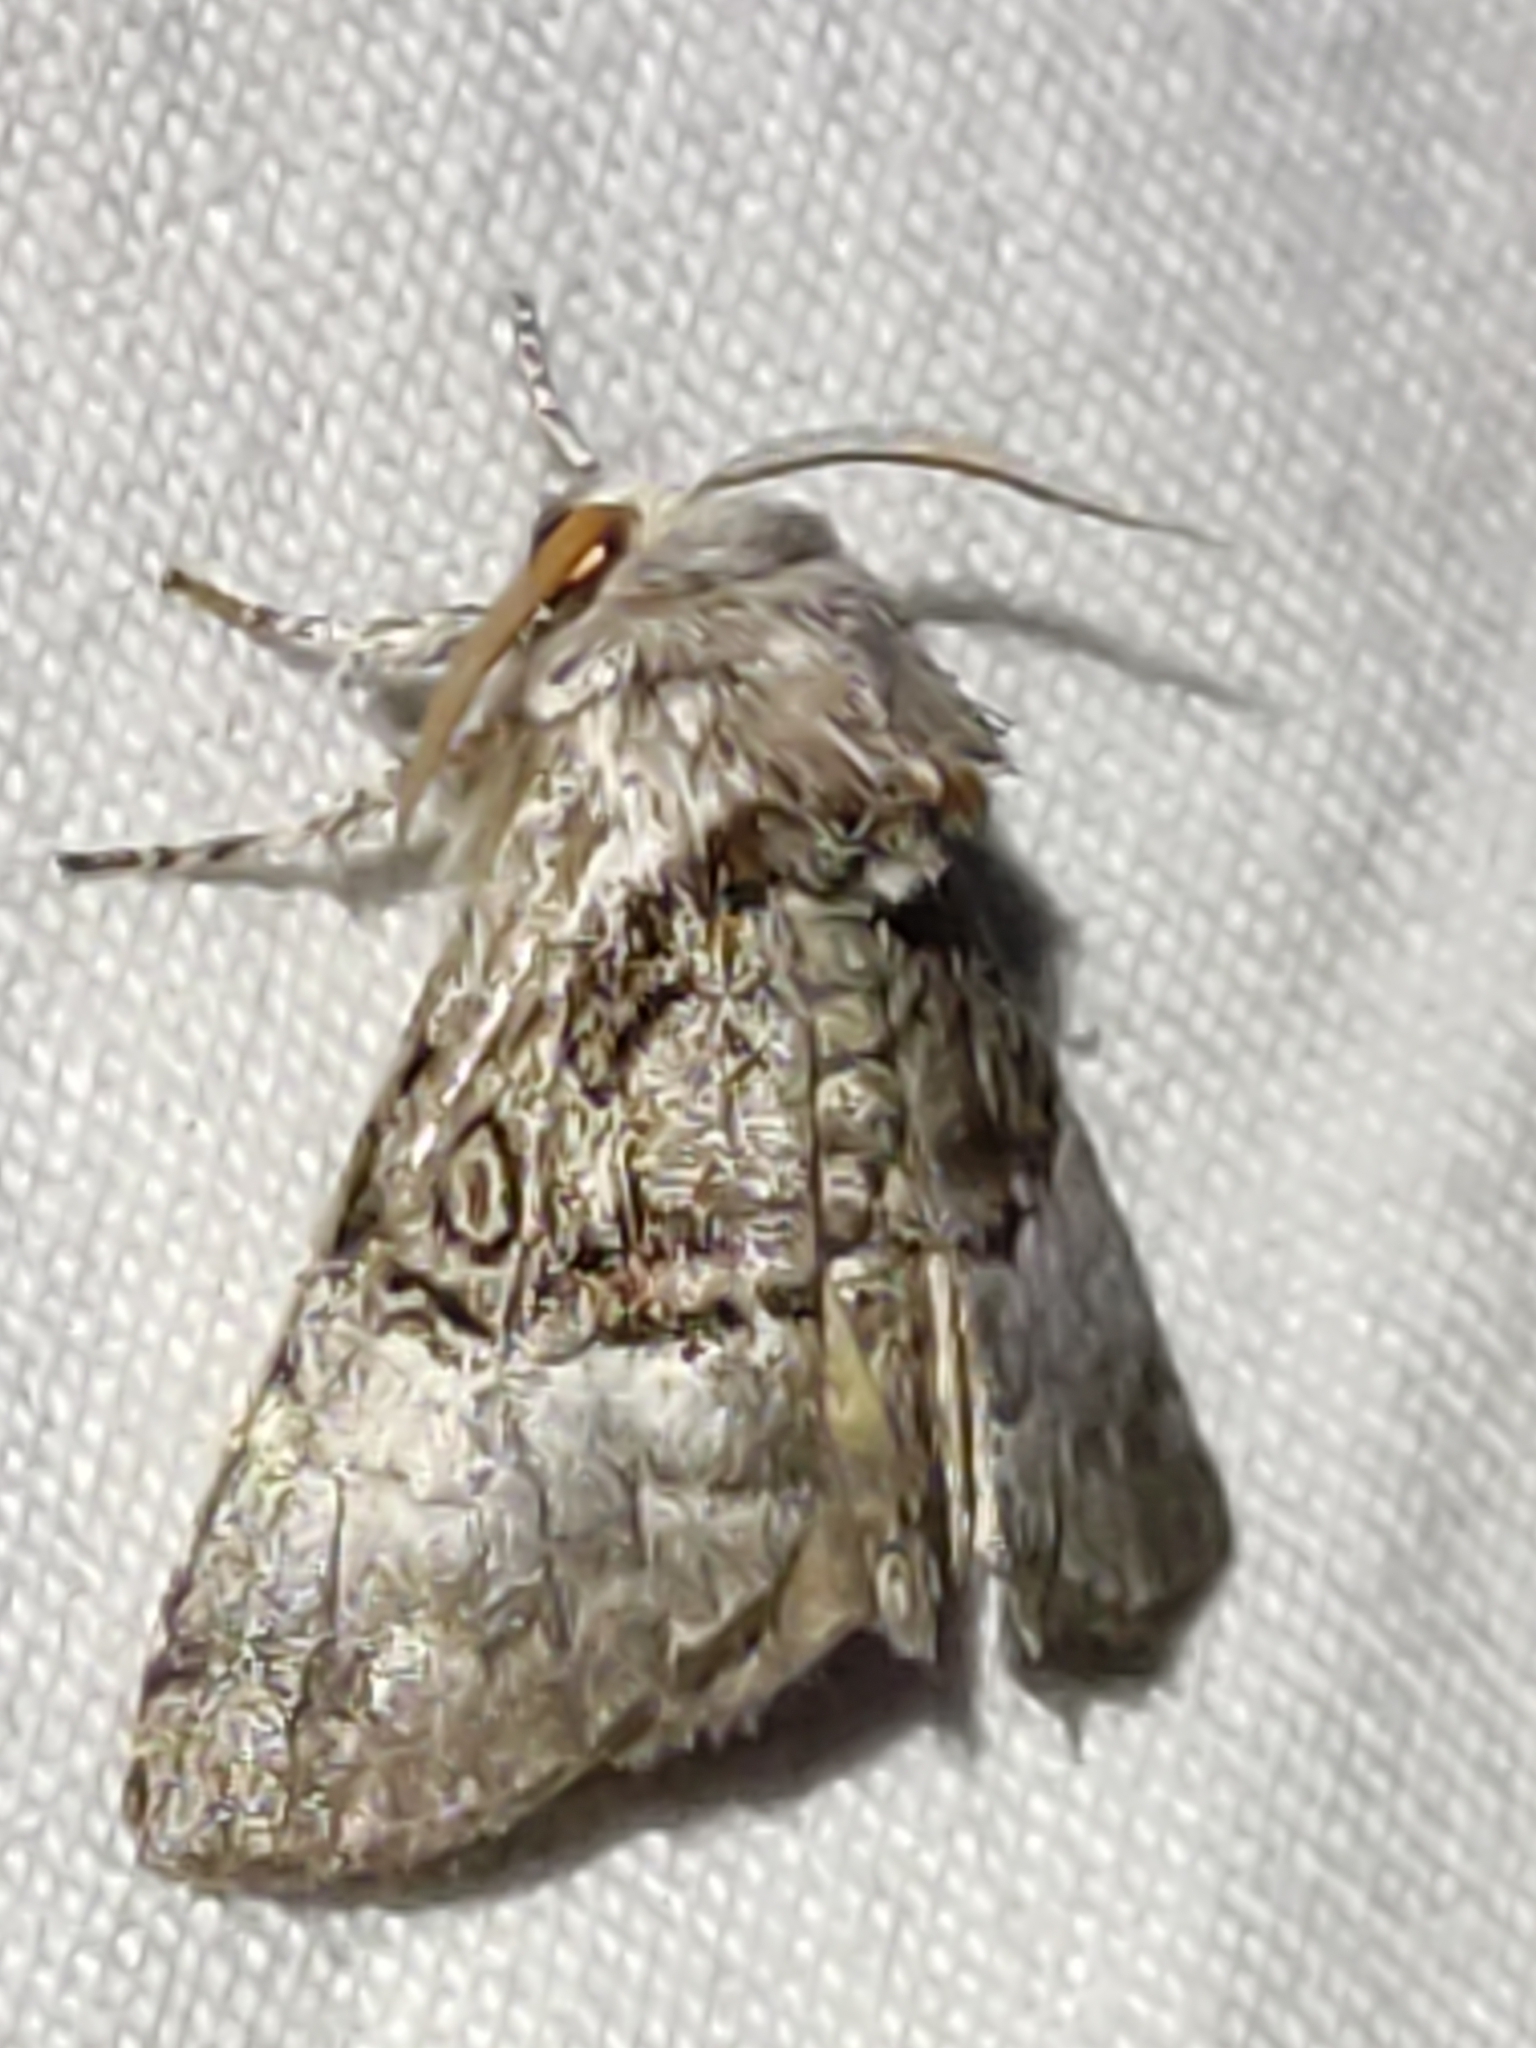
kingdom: Animalia
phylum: Arthropoda
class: Insecta
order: Lepidoptera
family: Noctuidae
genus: Colocasia
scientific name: Colocasia coryli
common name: Nut-tree tussock
